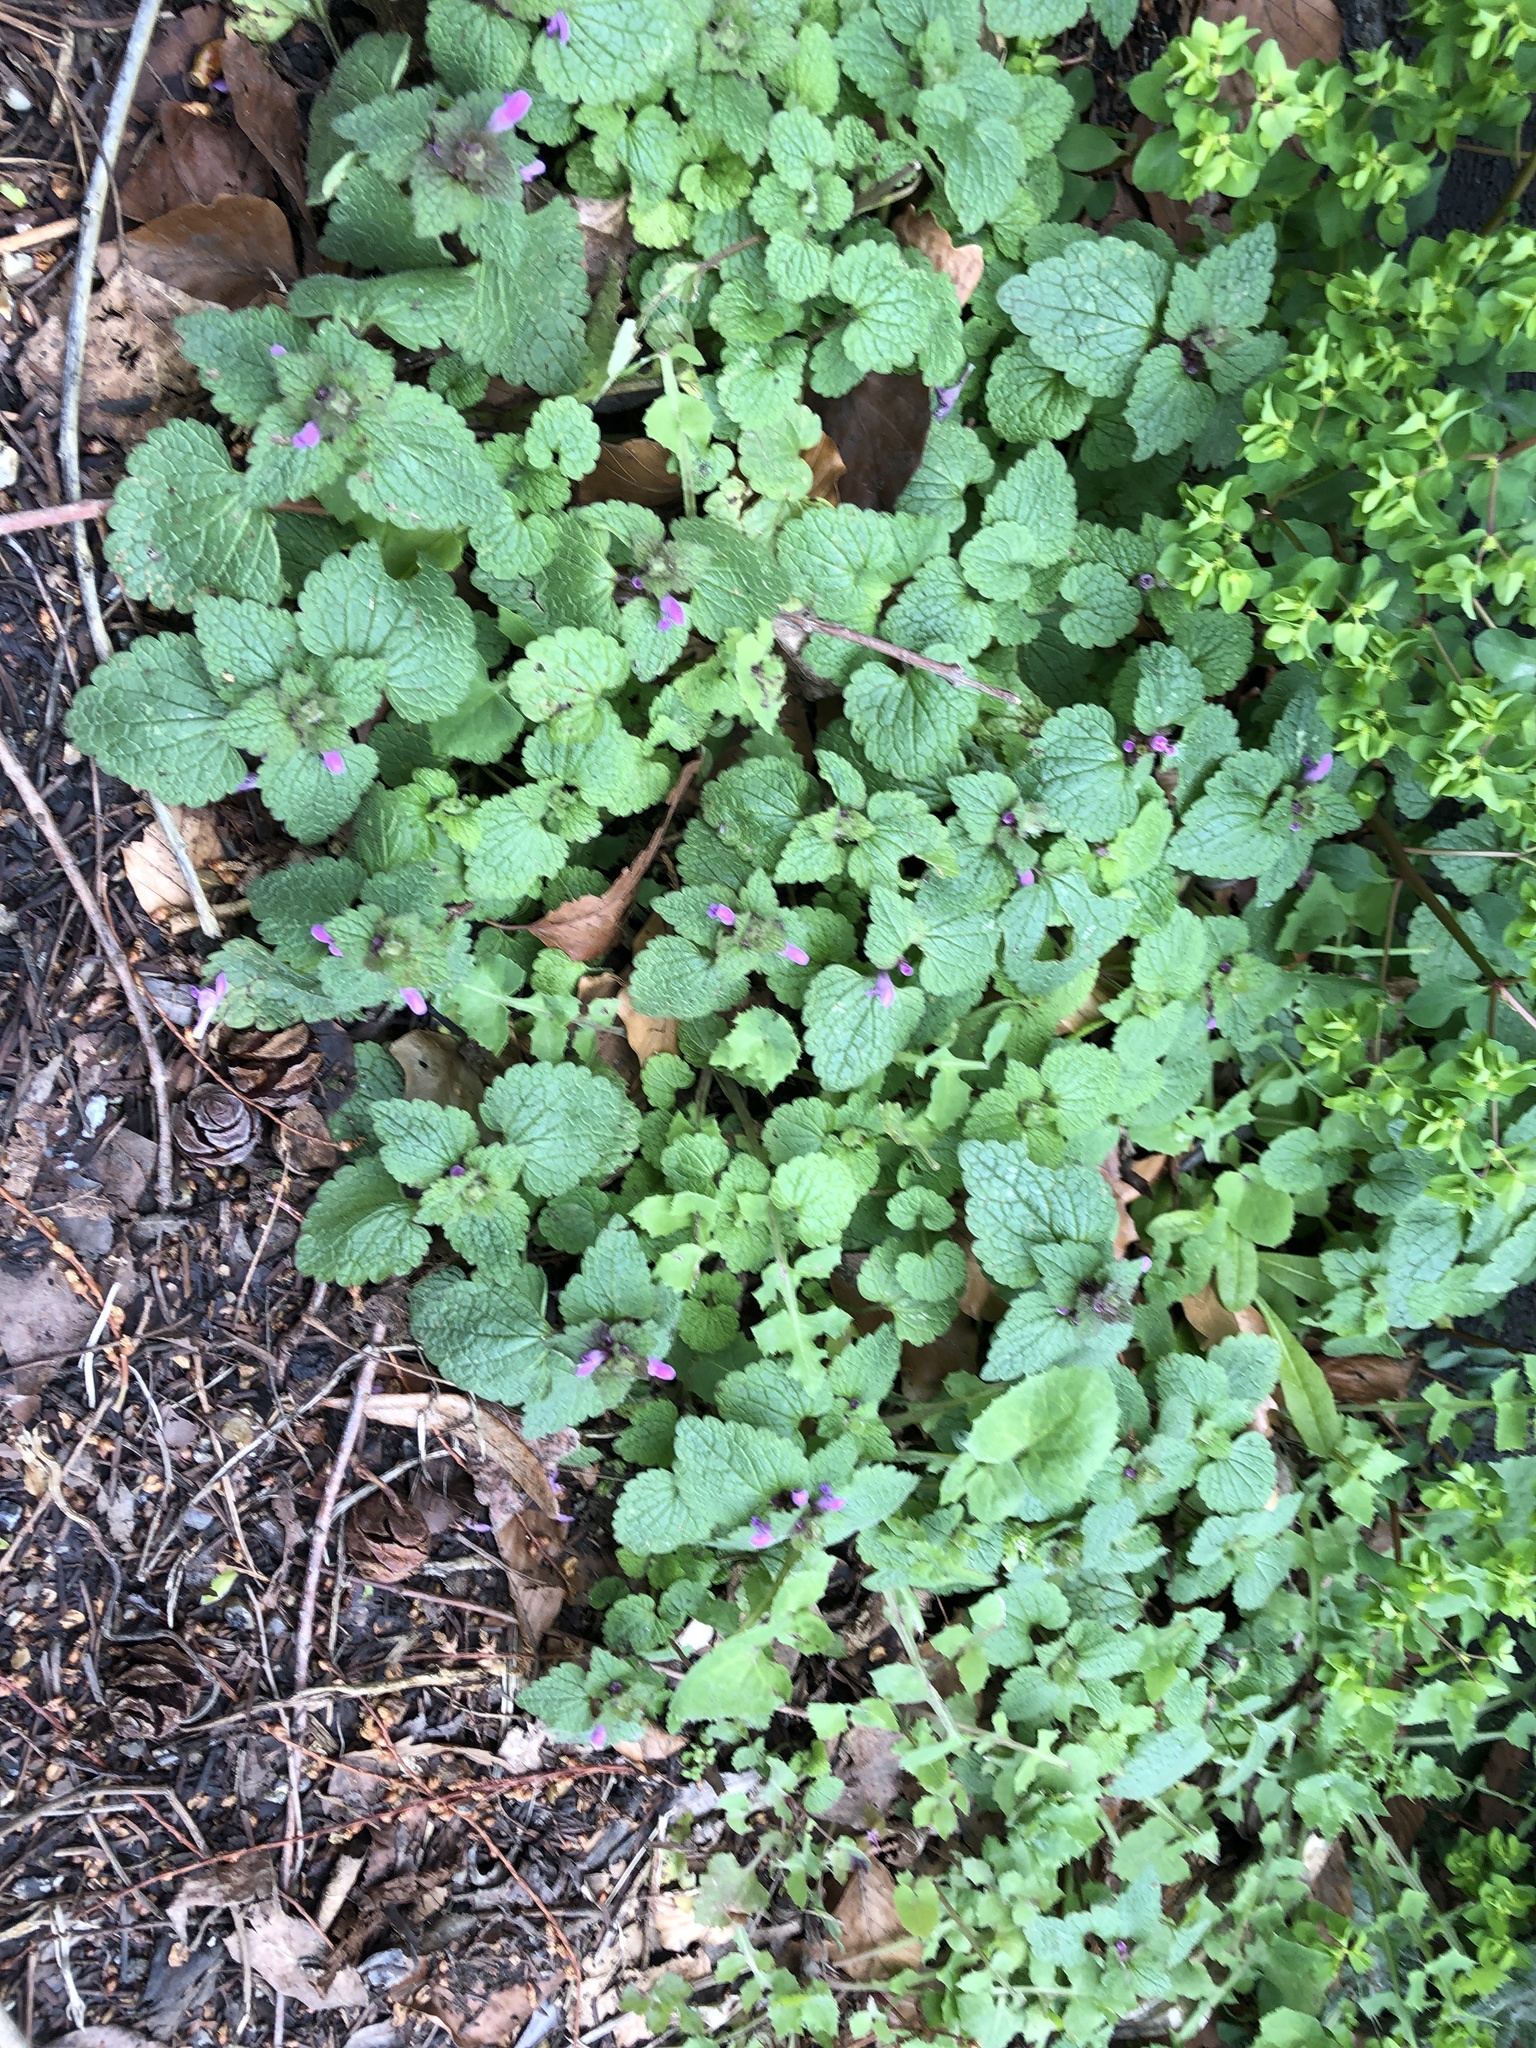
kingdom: Plantae
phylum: Tracheophyta
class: Magnoliopsida
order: Lamiales
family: Lamiaceae
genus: Lamium
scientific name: Lamium purpureum
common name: Red dead-nettle
